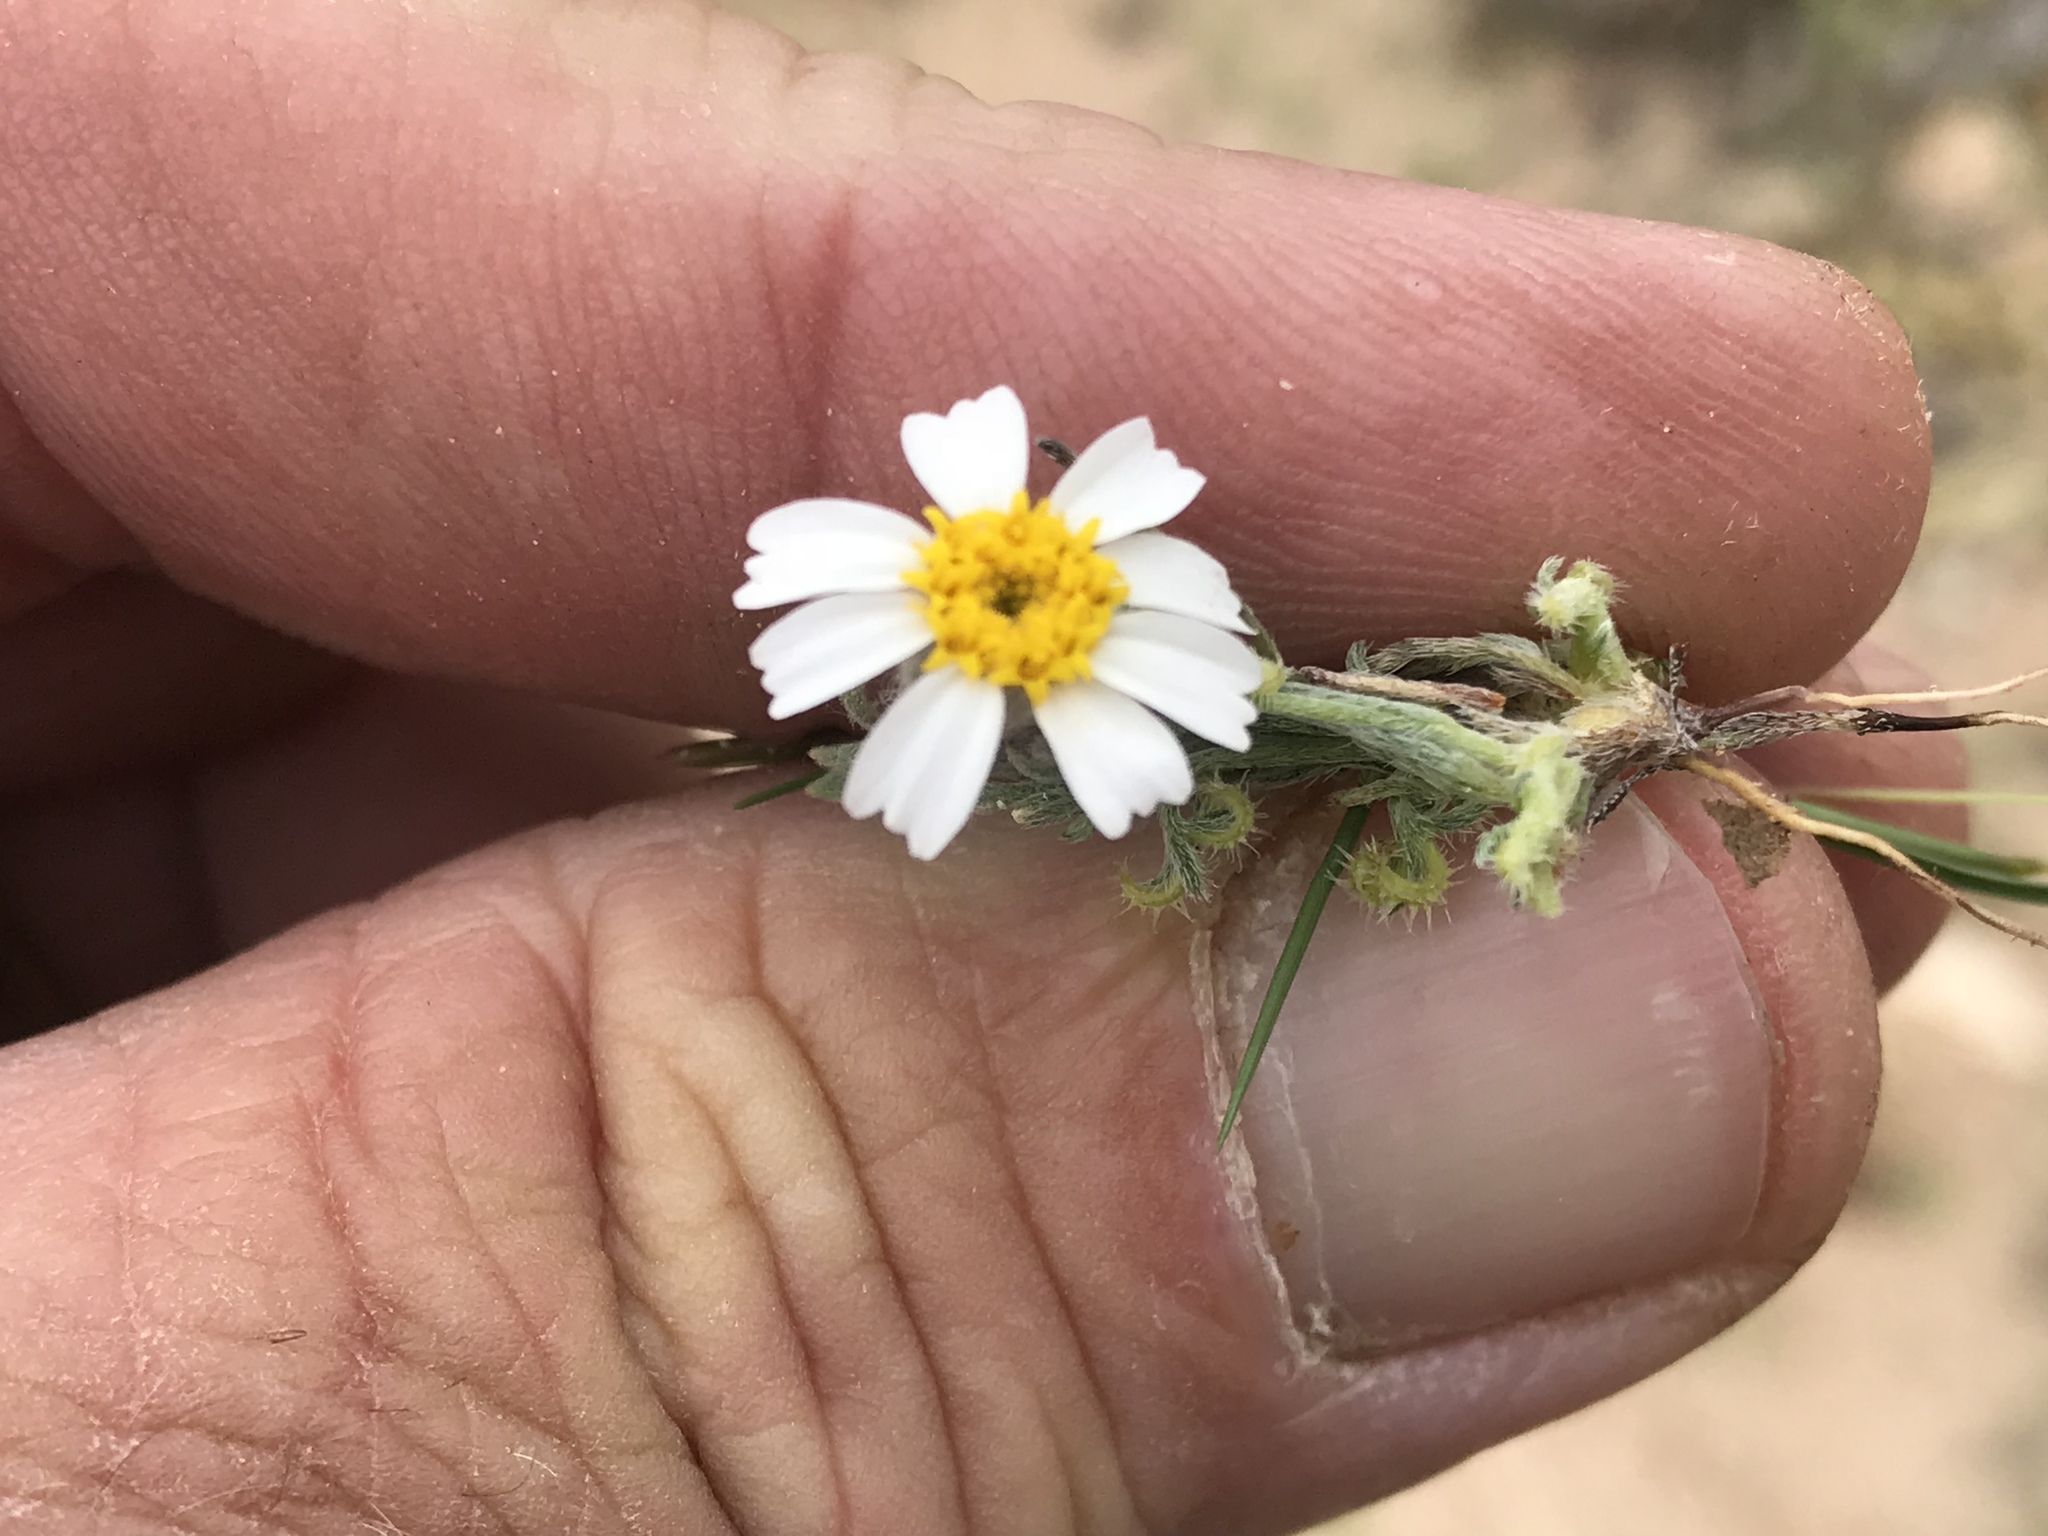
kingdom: Plantae
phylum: Tracheophyta
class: Magnoliopsida
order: Asterales
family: Asteraceae
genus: Eriophyllum
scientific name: Eriophyllum lanosum
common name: White easter-bonnets
